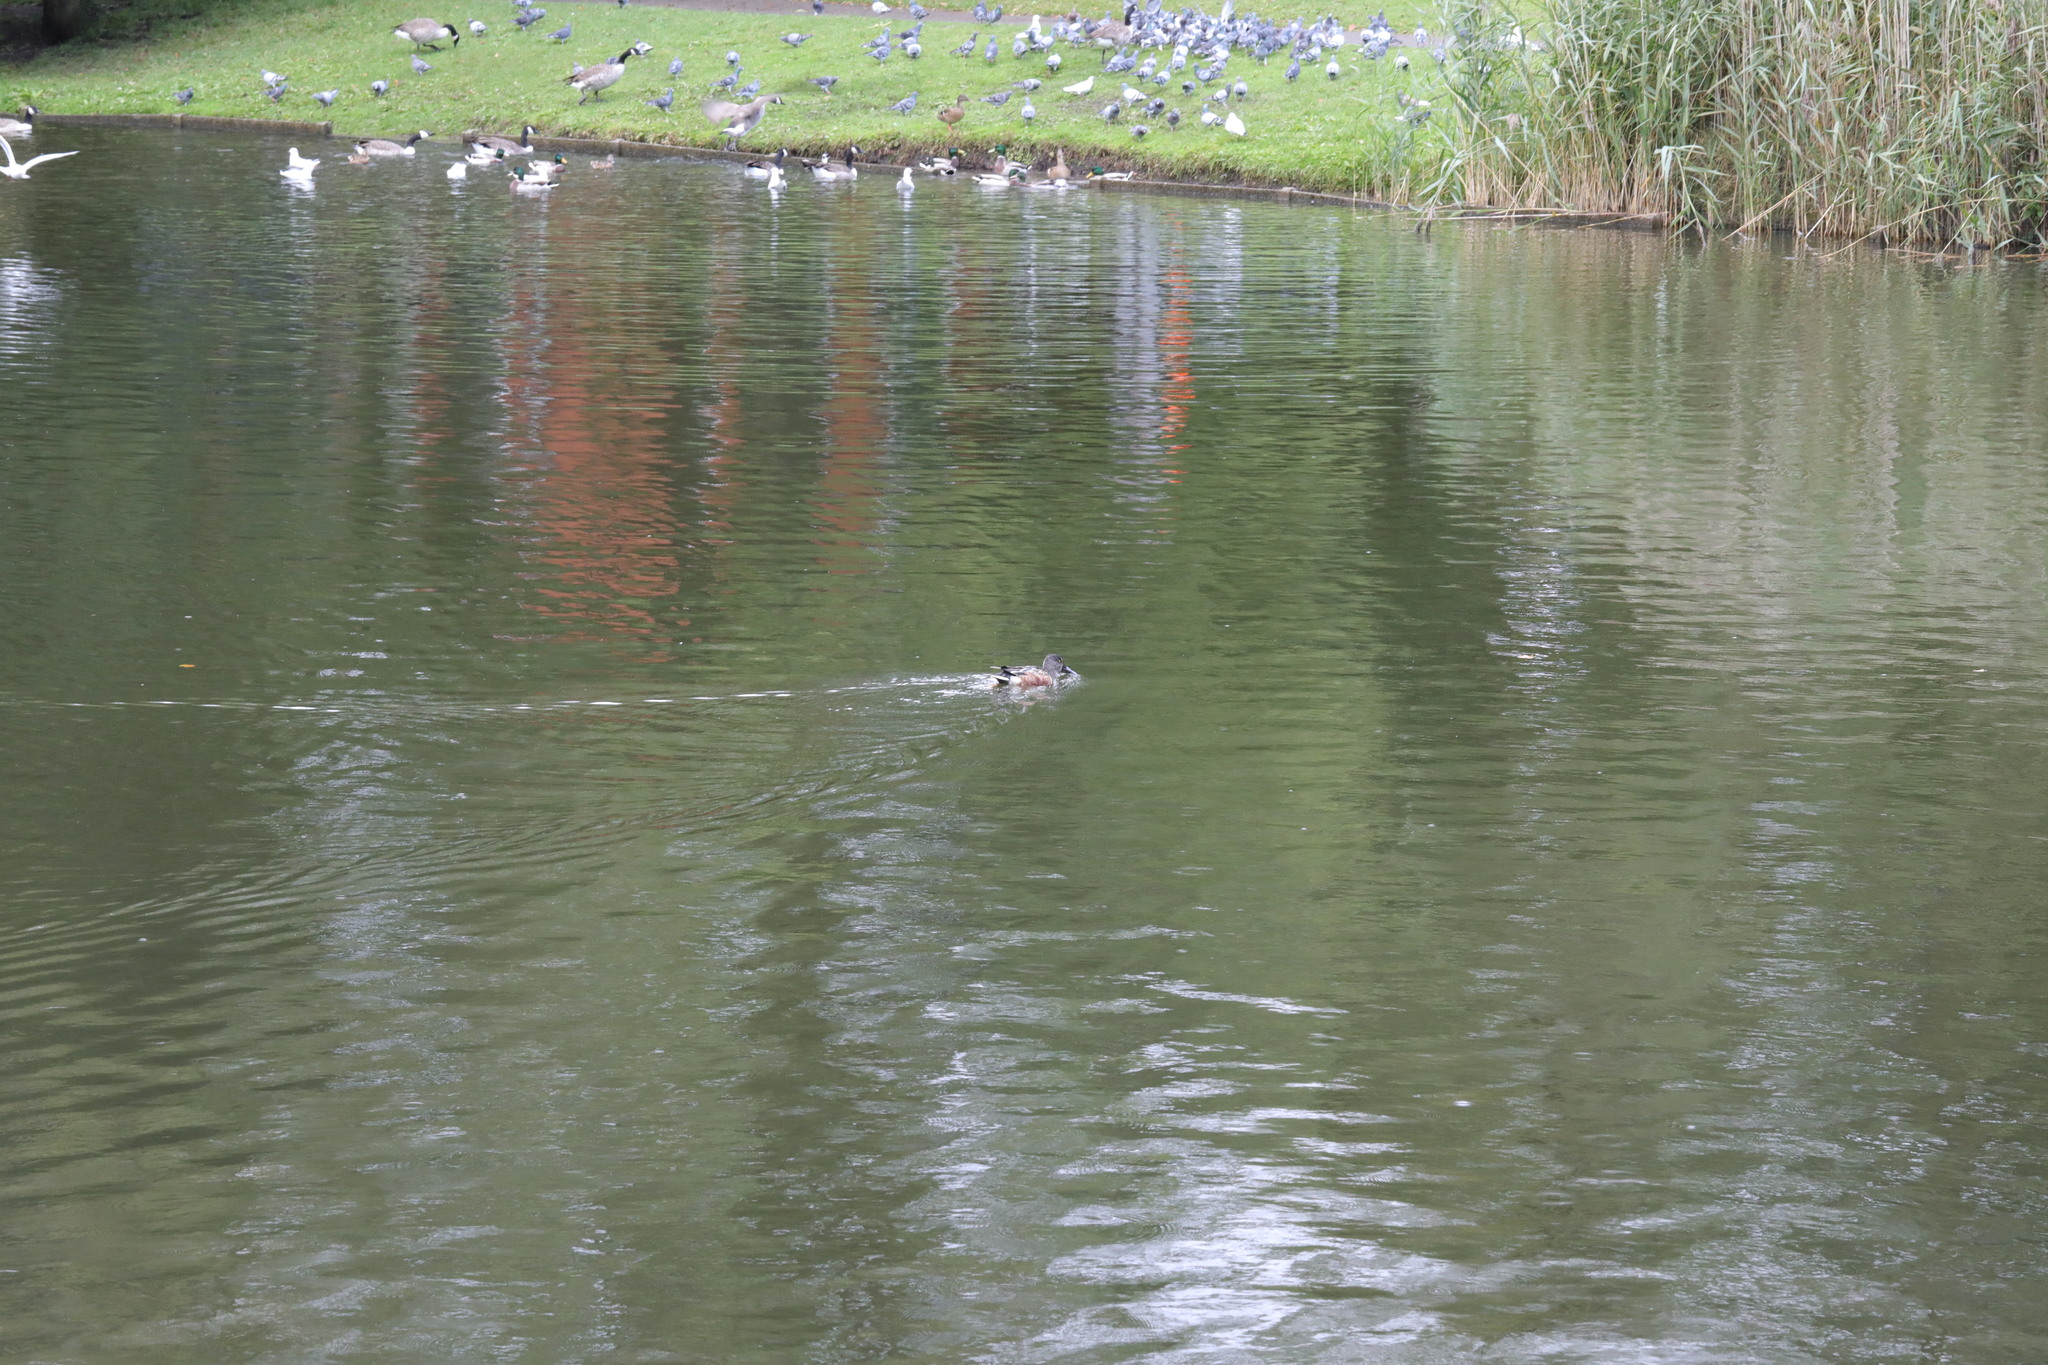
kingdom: Animalia
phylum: Chordata
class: Aves
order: Anseriformes
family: Anatidae
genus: Spatula
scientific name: Spatula clypeata
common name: Northern shoveler
